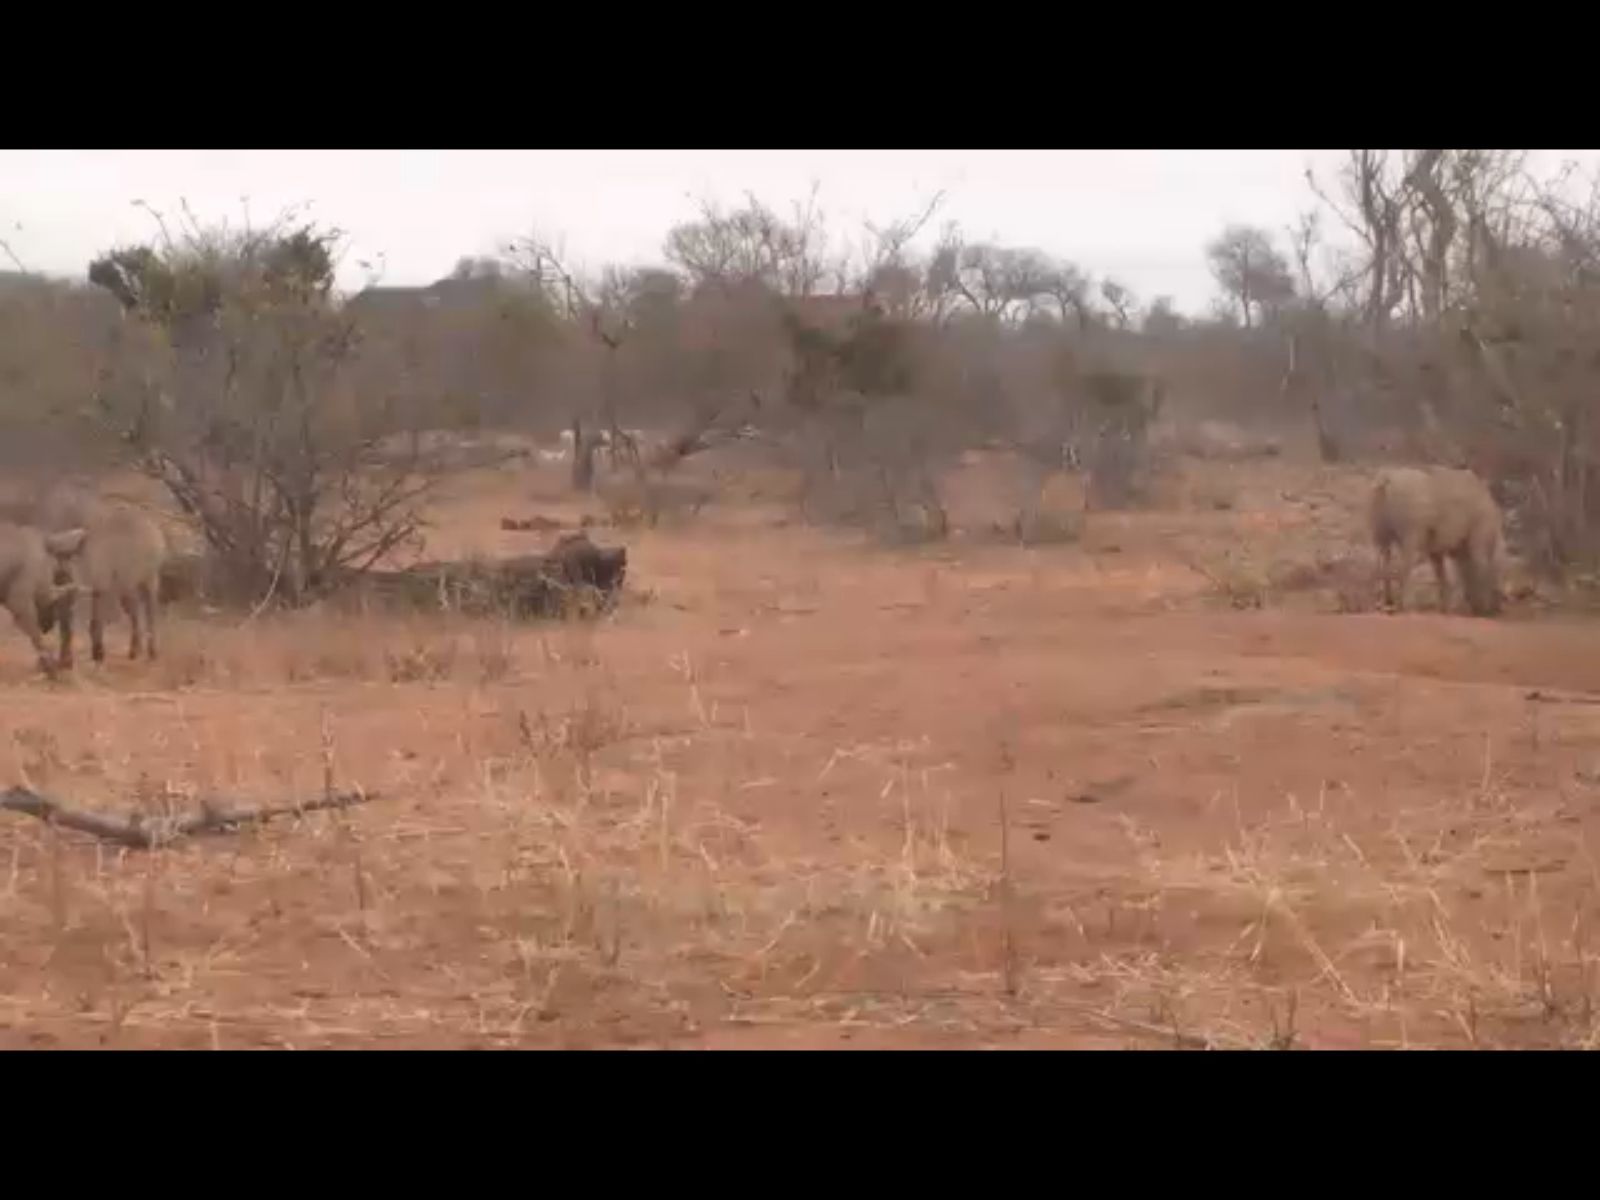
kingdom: Animalia
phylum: Chordata
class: Mammalia
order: Artiodactyla
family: Suidae
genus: Phacochoerus
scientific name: Phacochoerus africanus
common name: Common warthog
